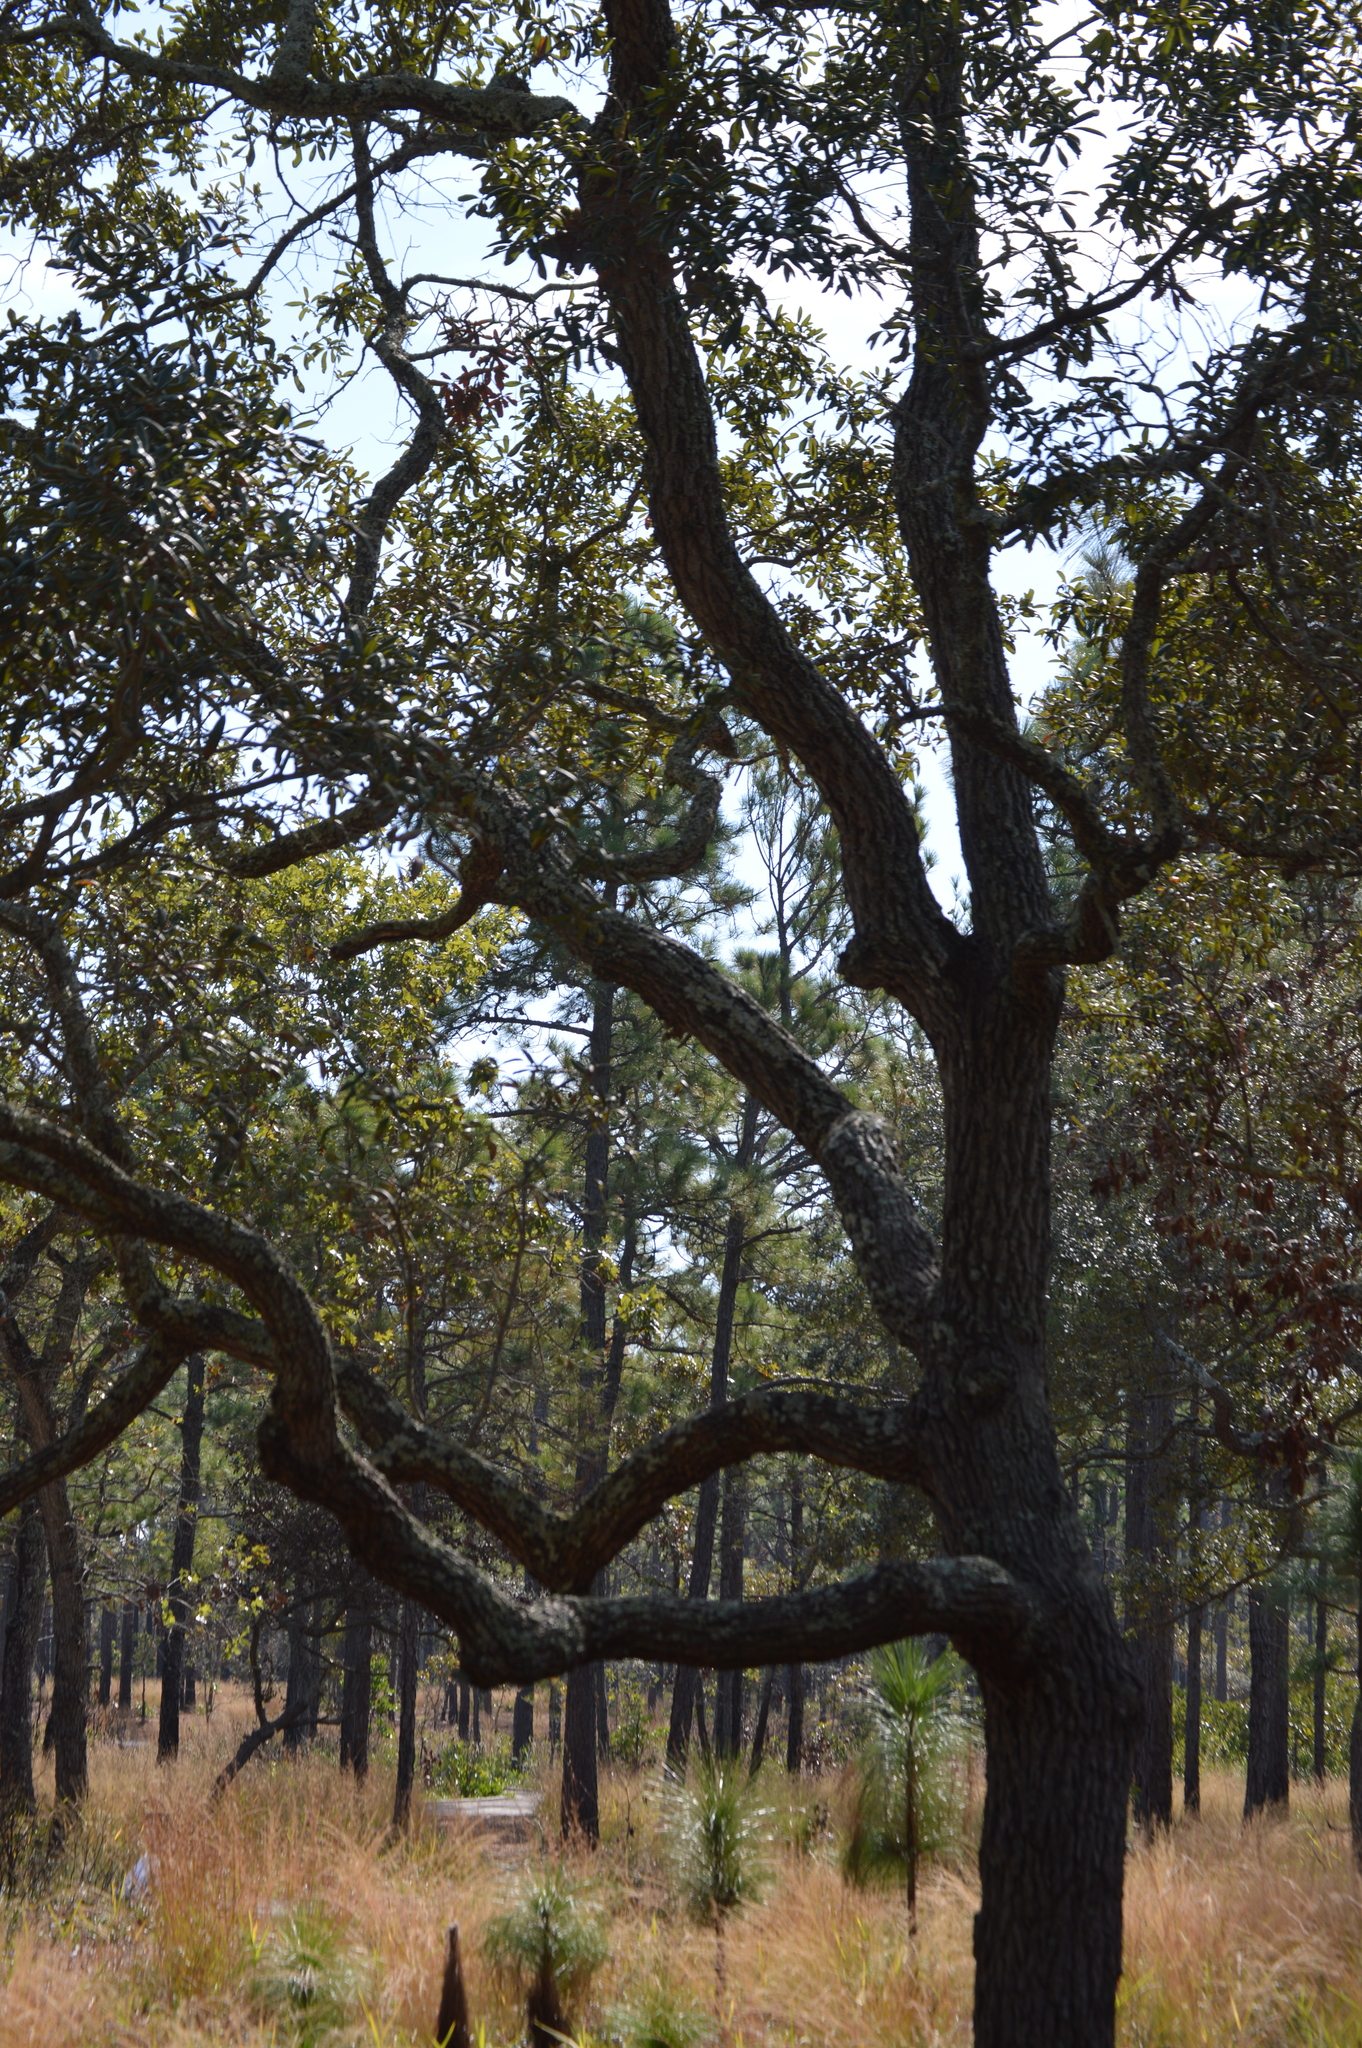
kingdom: Plantae
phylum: Tracheophyta
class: Magnoliopsida
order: Fagales
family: Fagaceae
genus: Quercus
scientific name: Quercus geminata
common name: Sand live oak
